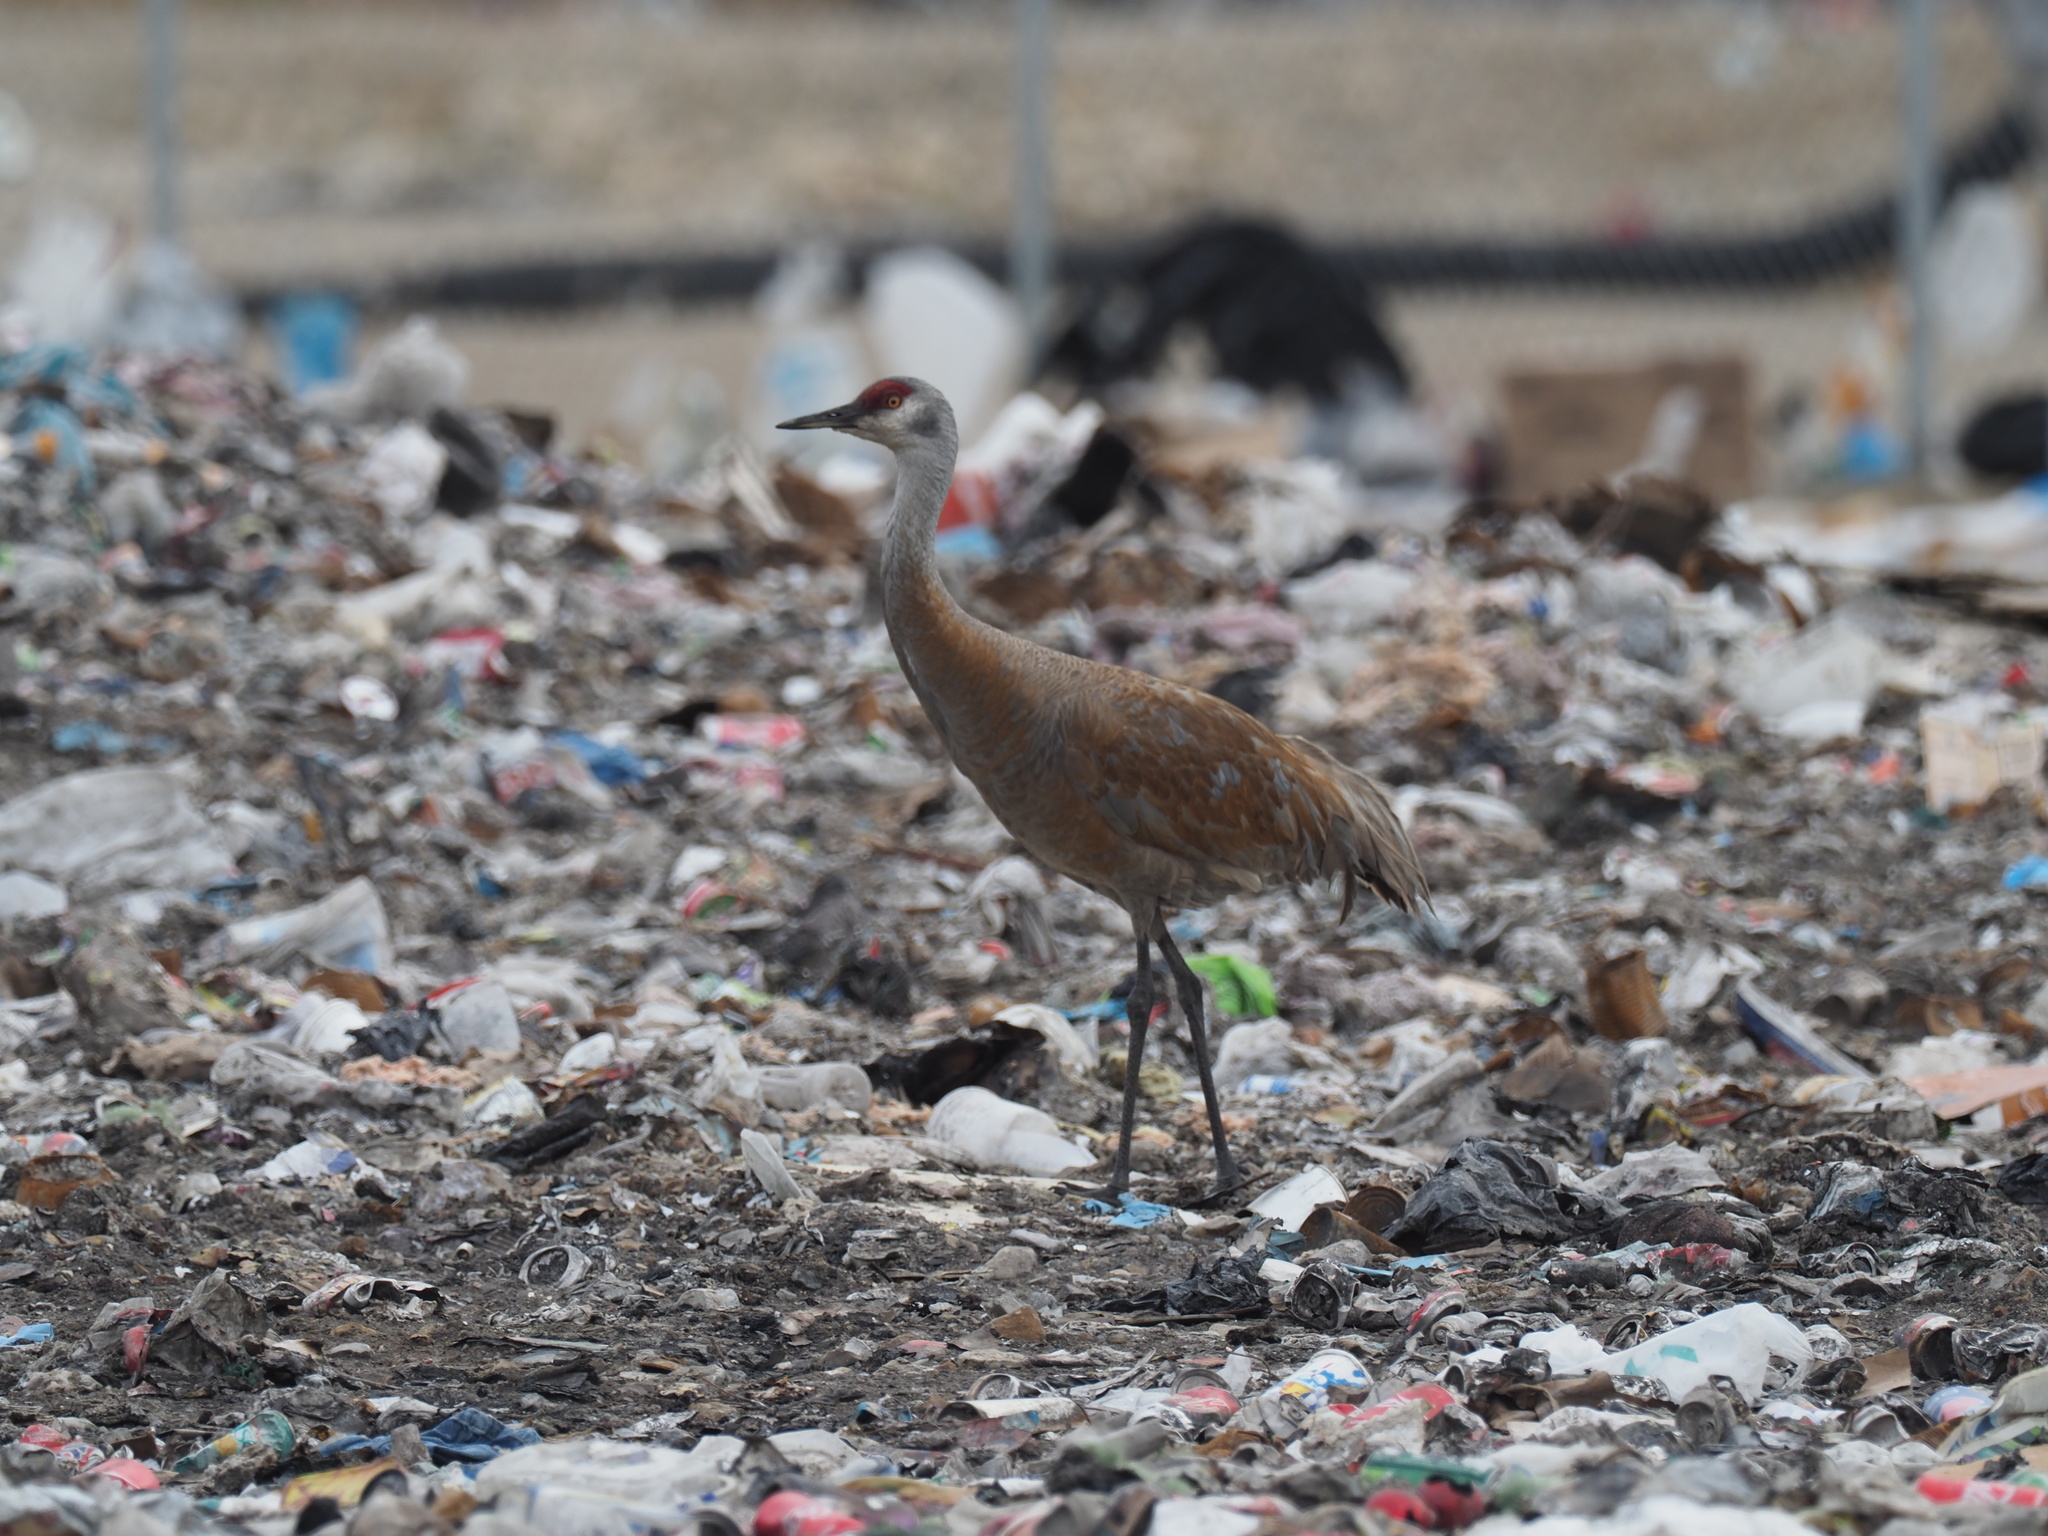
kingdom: Animalia
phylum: Chordata
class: Aves
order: Gruiformes
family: Gruidae
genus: Grus
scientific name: Grus canadensis
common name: Sandhill crane
